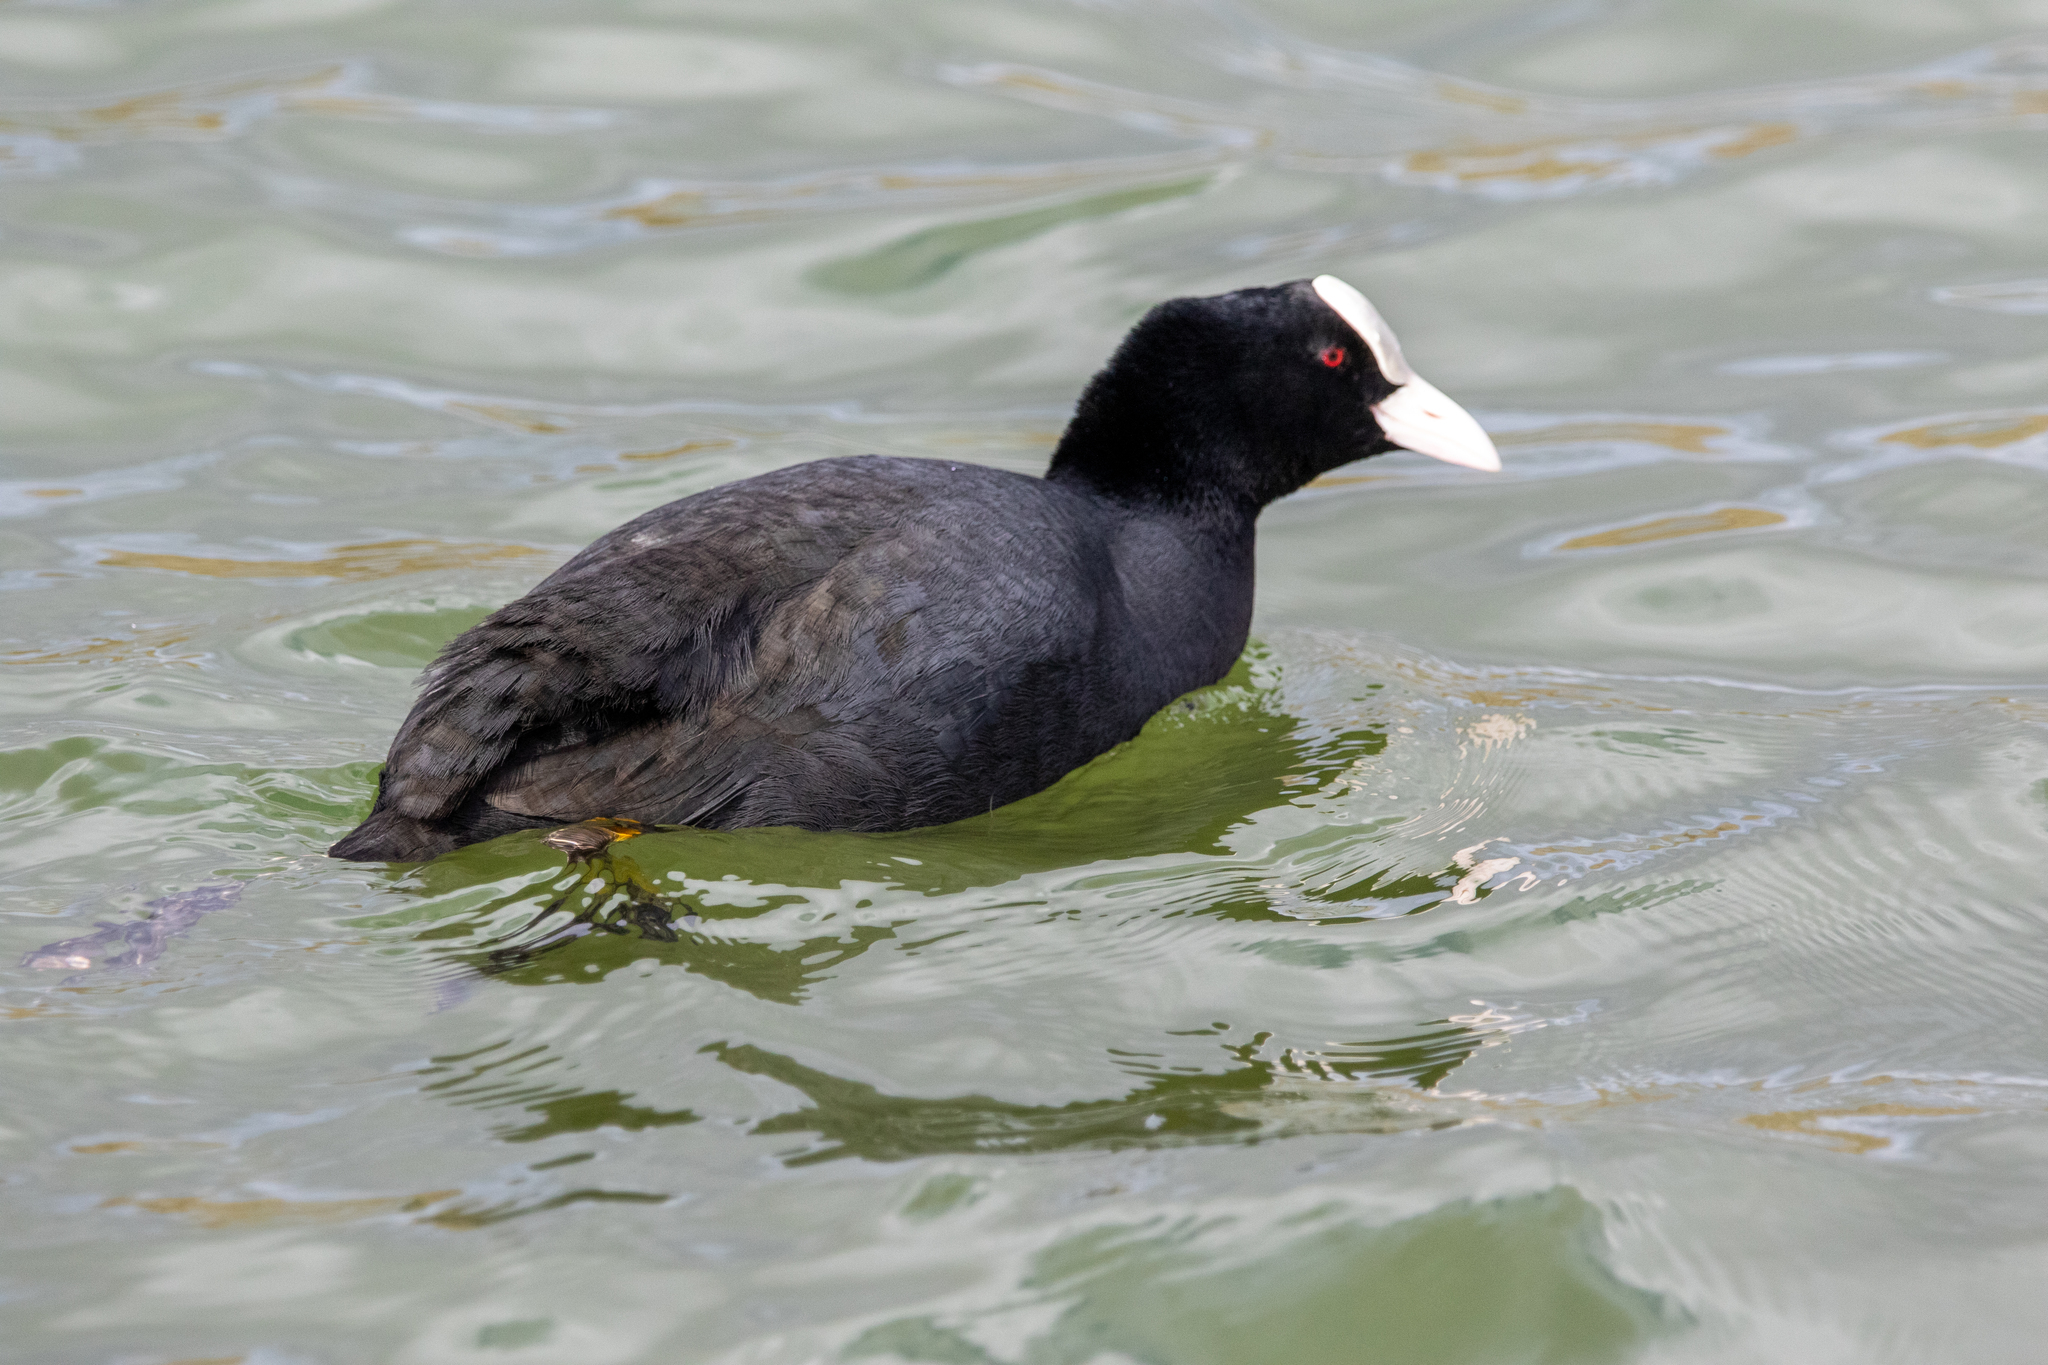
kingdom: Animalia
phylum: Chordata
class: Aves
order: Gruiformes
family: Rallidae
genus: Fulica
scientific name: Fulica atra
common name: Eurasian coot
